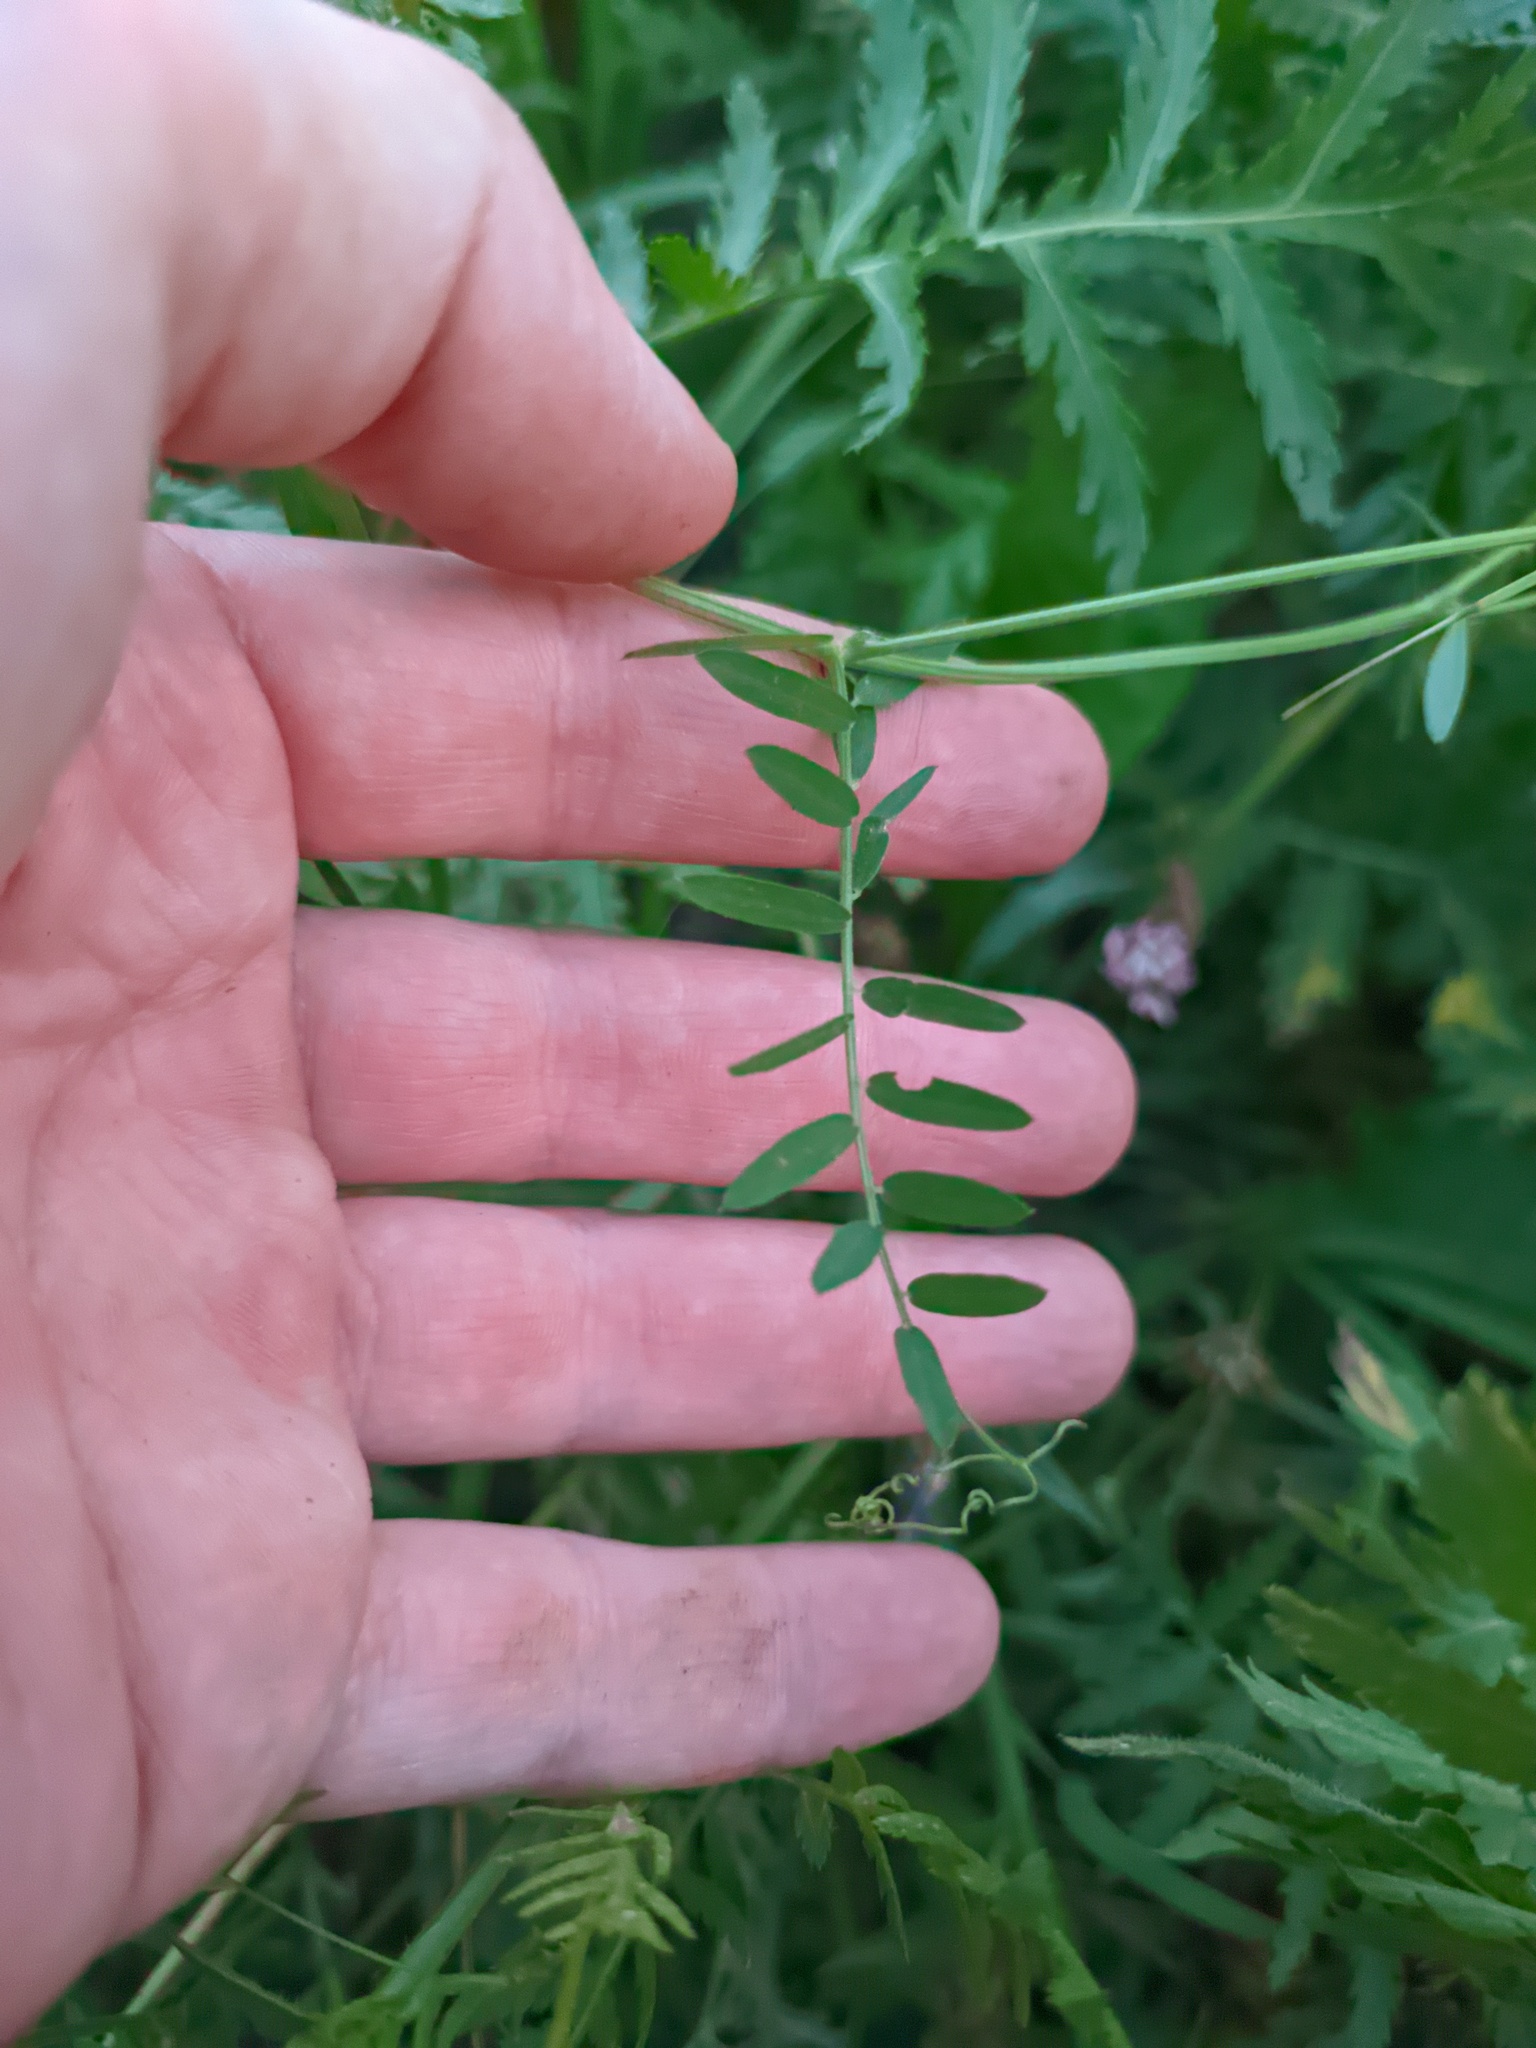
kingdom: Plantae
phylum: Tracheophyta
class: Magnoliopsida
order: Fabales
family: Fabaceae
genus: Vicia
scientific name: Vicia cracca
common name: Bird vetch
